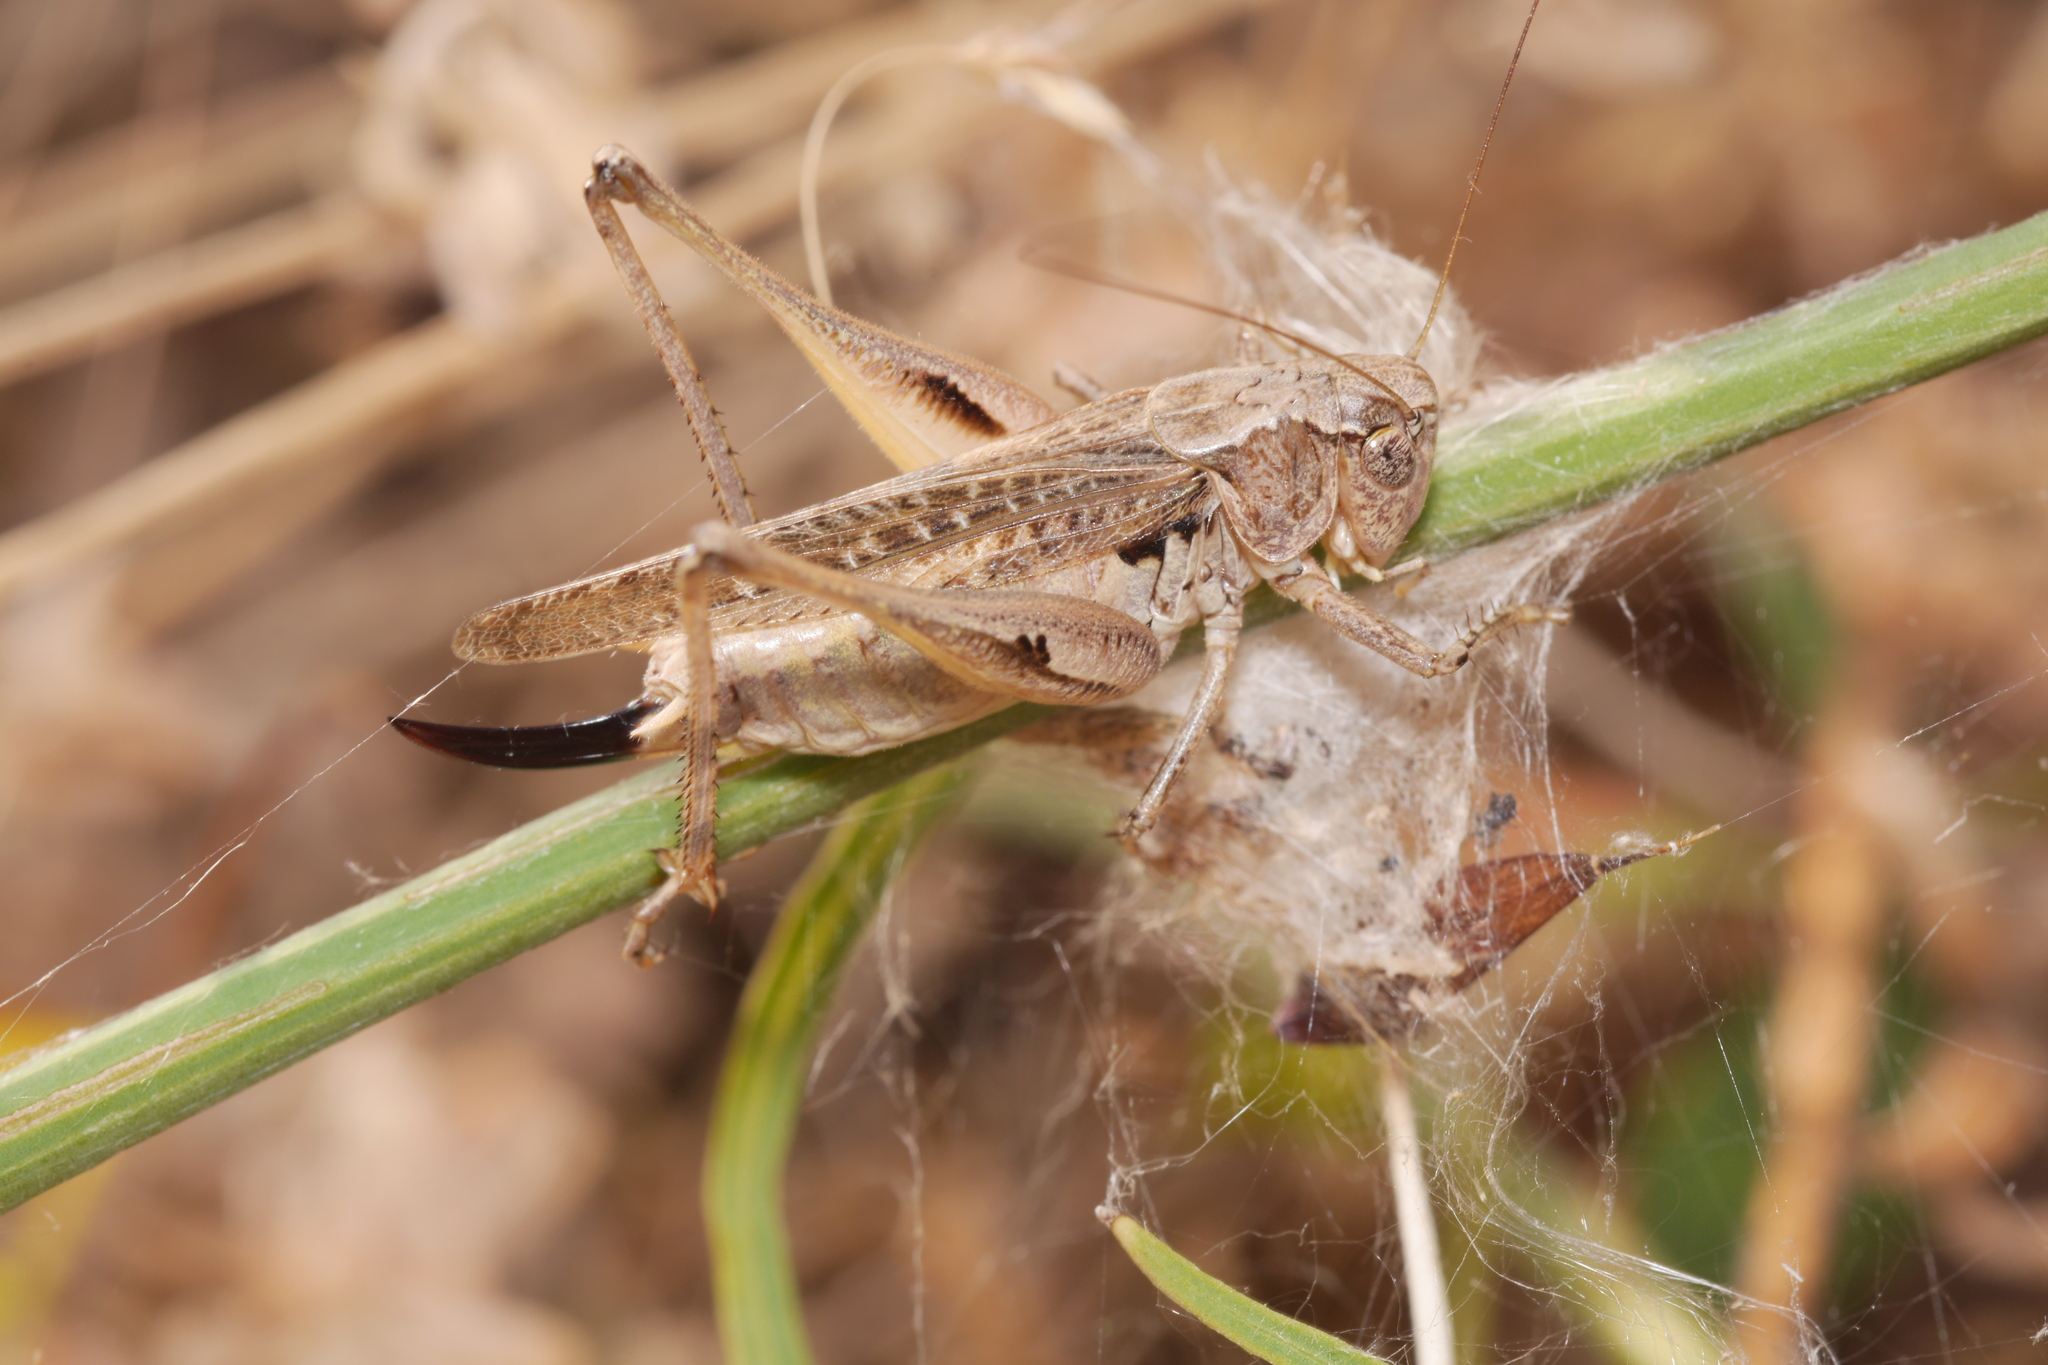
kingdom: Animalia
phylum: Arthropoda
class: Insecta
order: Orthoptera
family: Tettigoniidae
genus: Platycleis
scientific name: Platycleis albopunctata
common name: Grey bush-cricket
